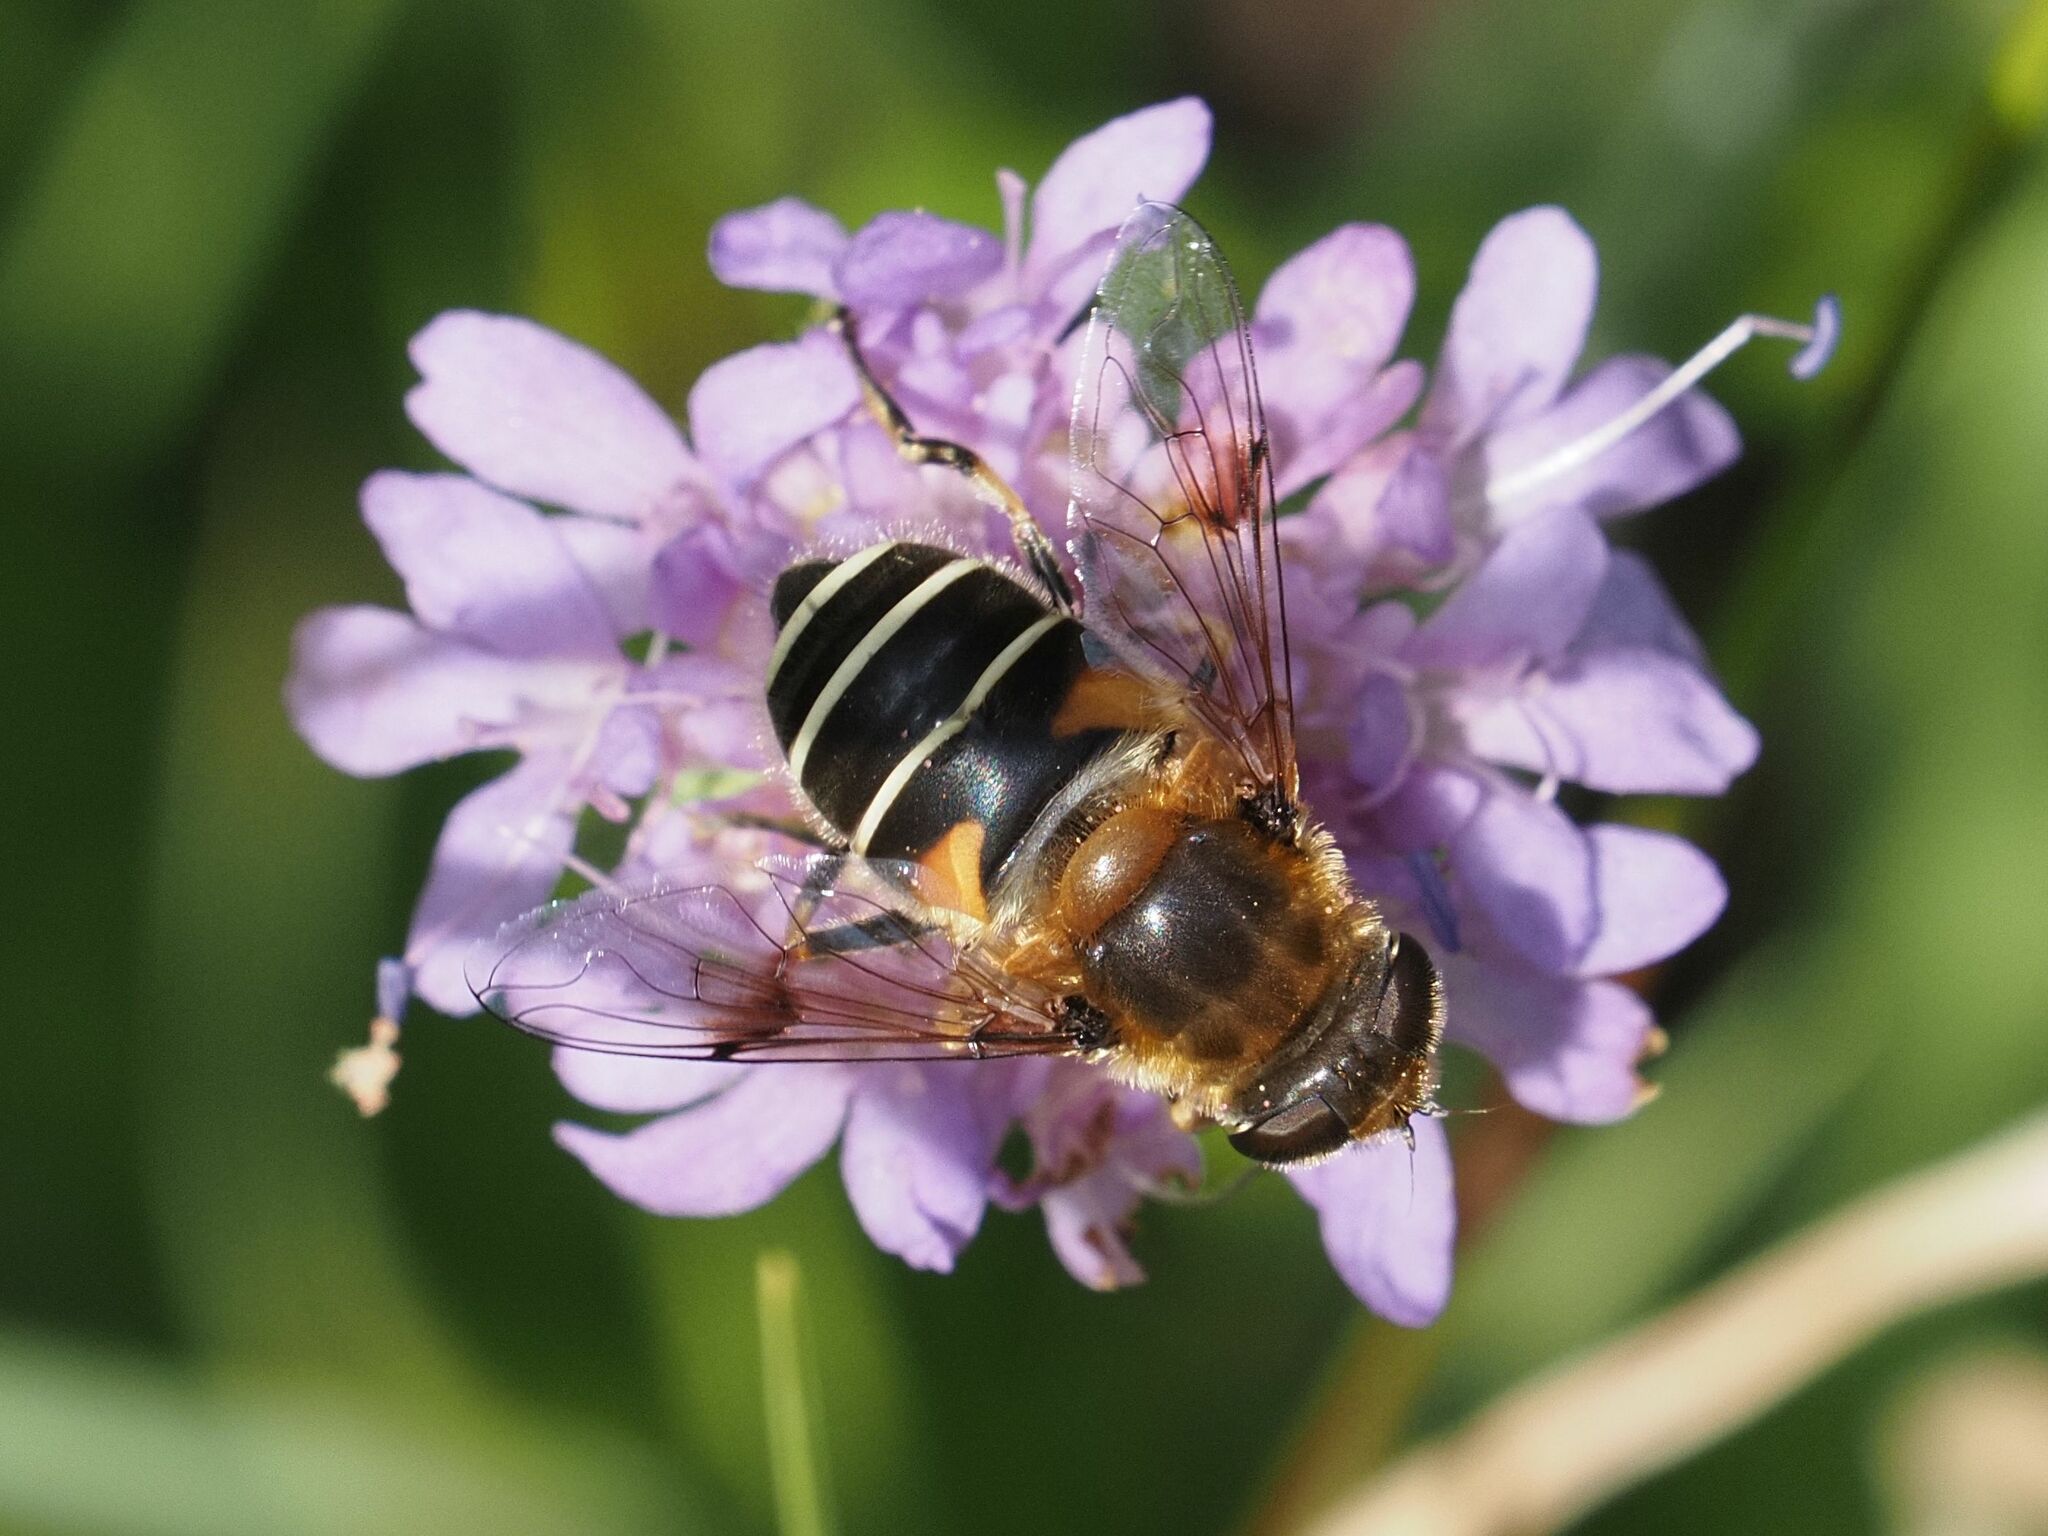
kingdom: Animalia
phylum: Arthropoda
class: Insecta
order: Diptera
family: Syrphidae
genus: Eristalis
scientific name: Eristalis jugorum
